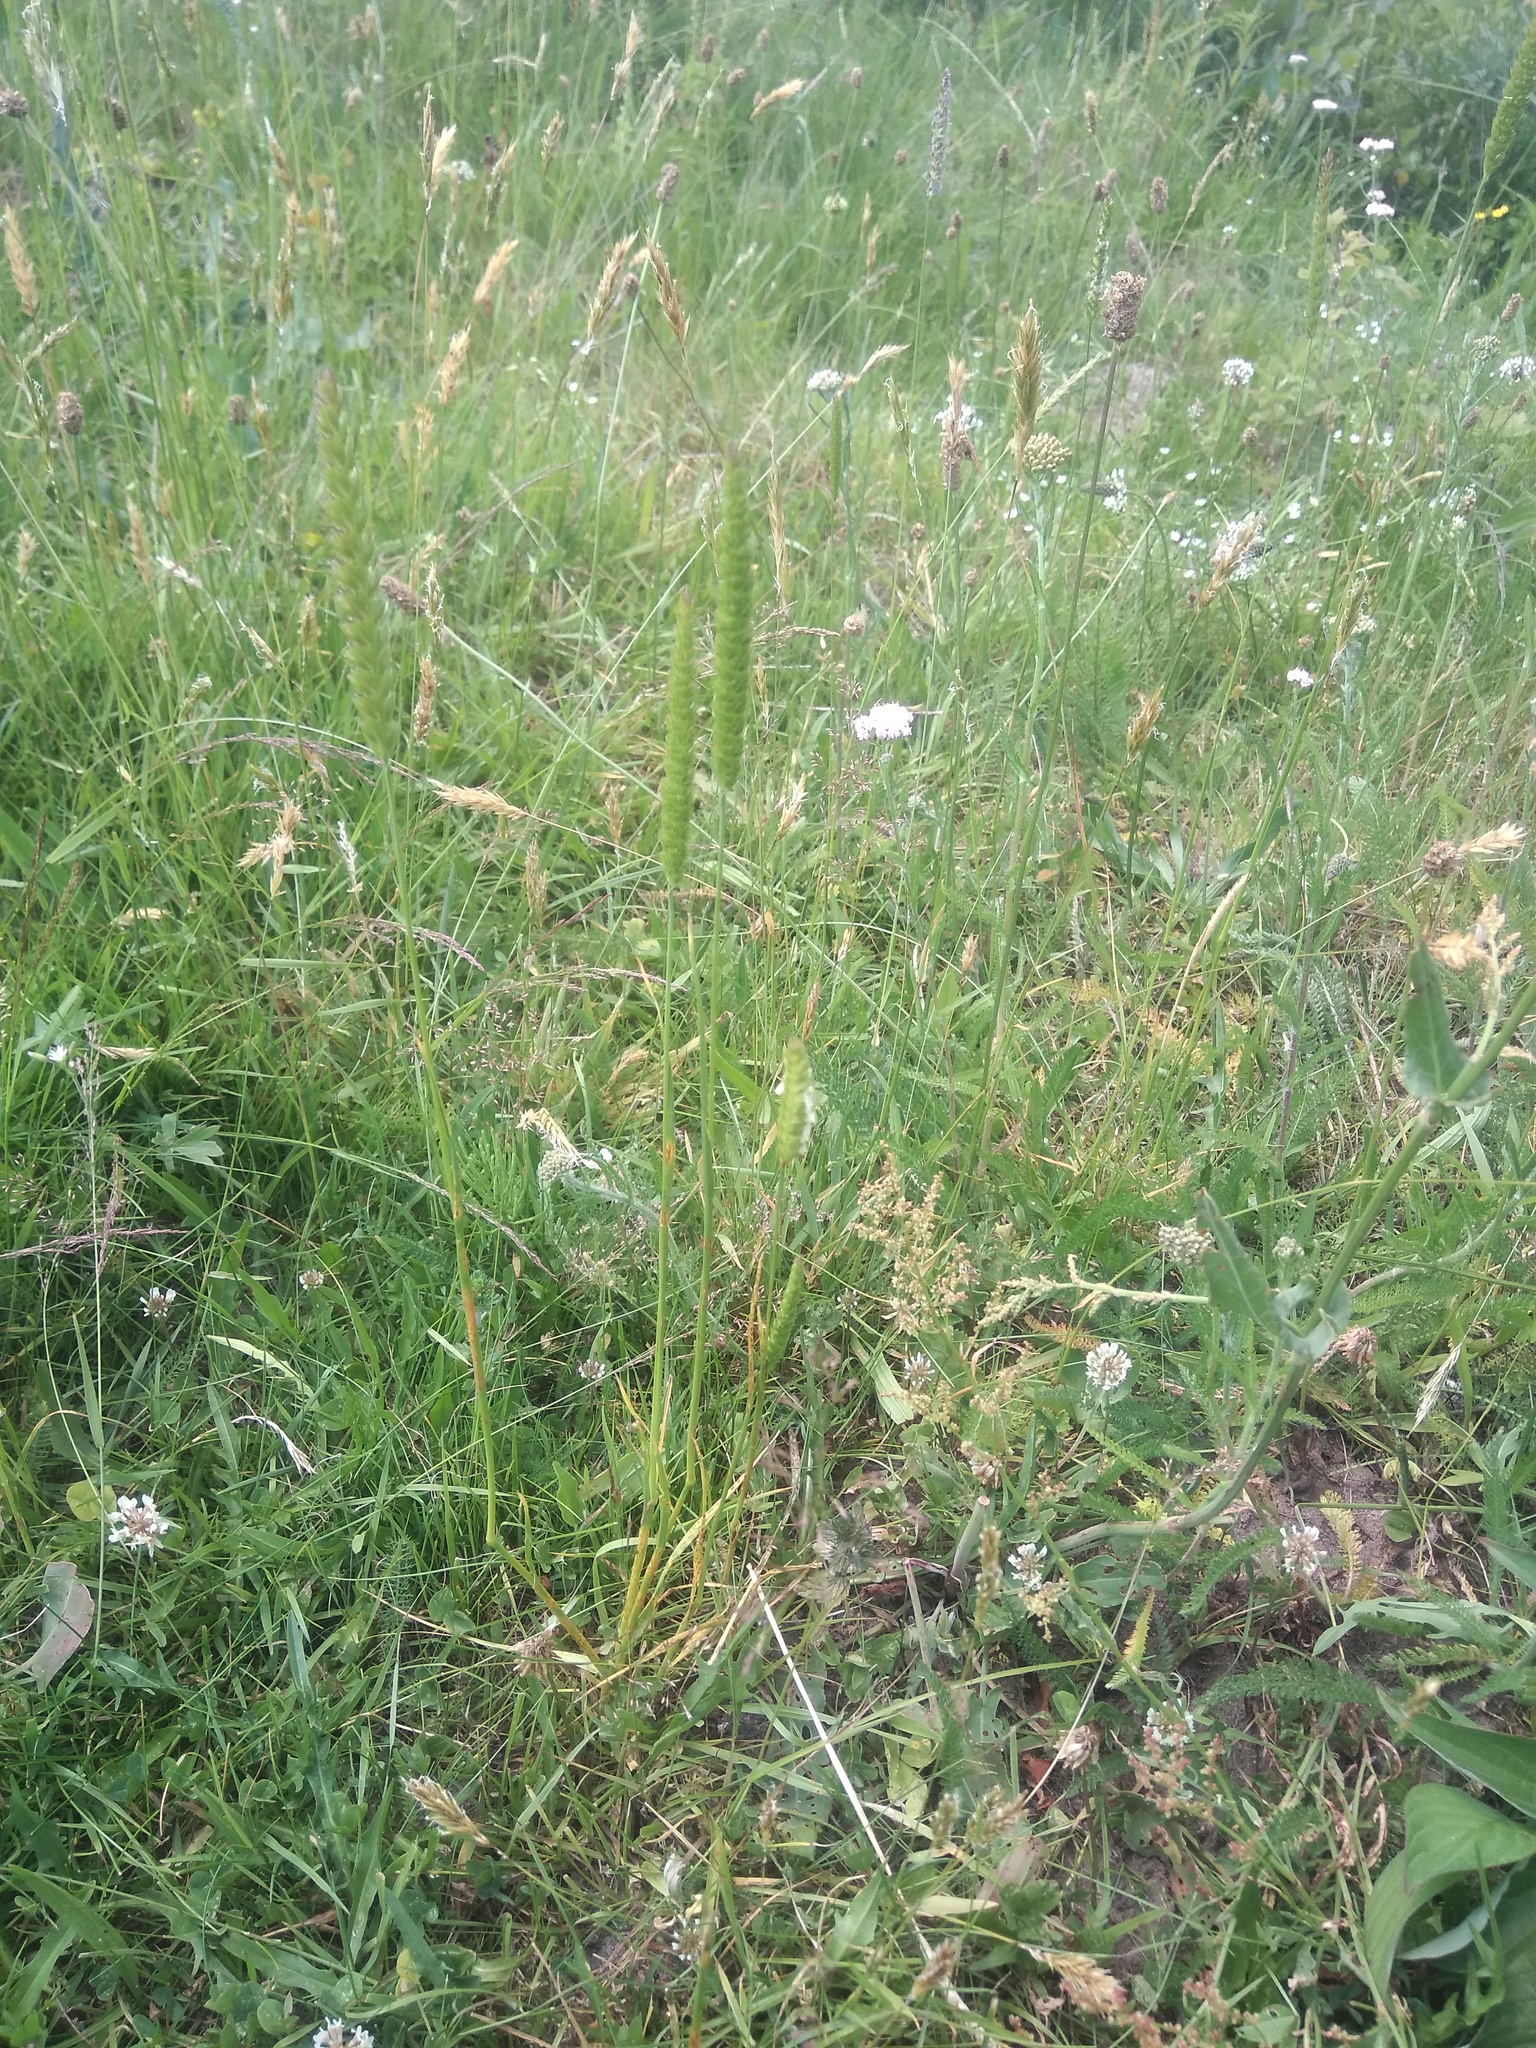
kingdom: Plantae
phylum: Tracheophyta
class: Liliopsida
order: Poales
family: Poaceae
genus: Cynosurus
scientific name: Cynosurus cristatus
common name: Crested dog's-tail
